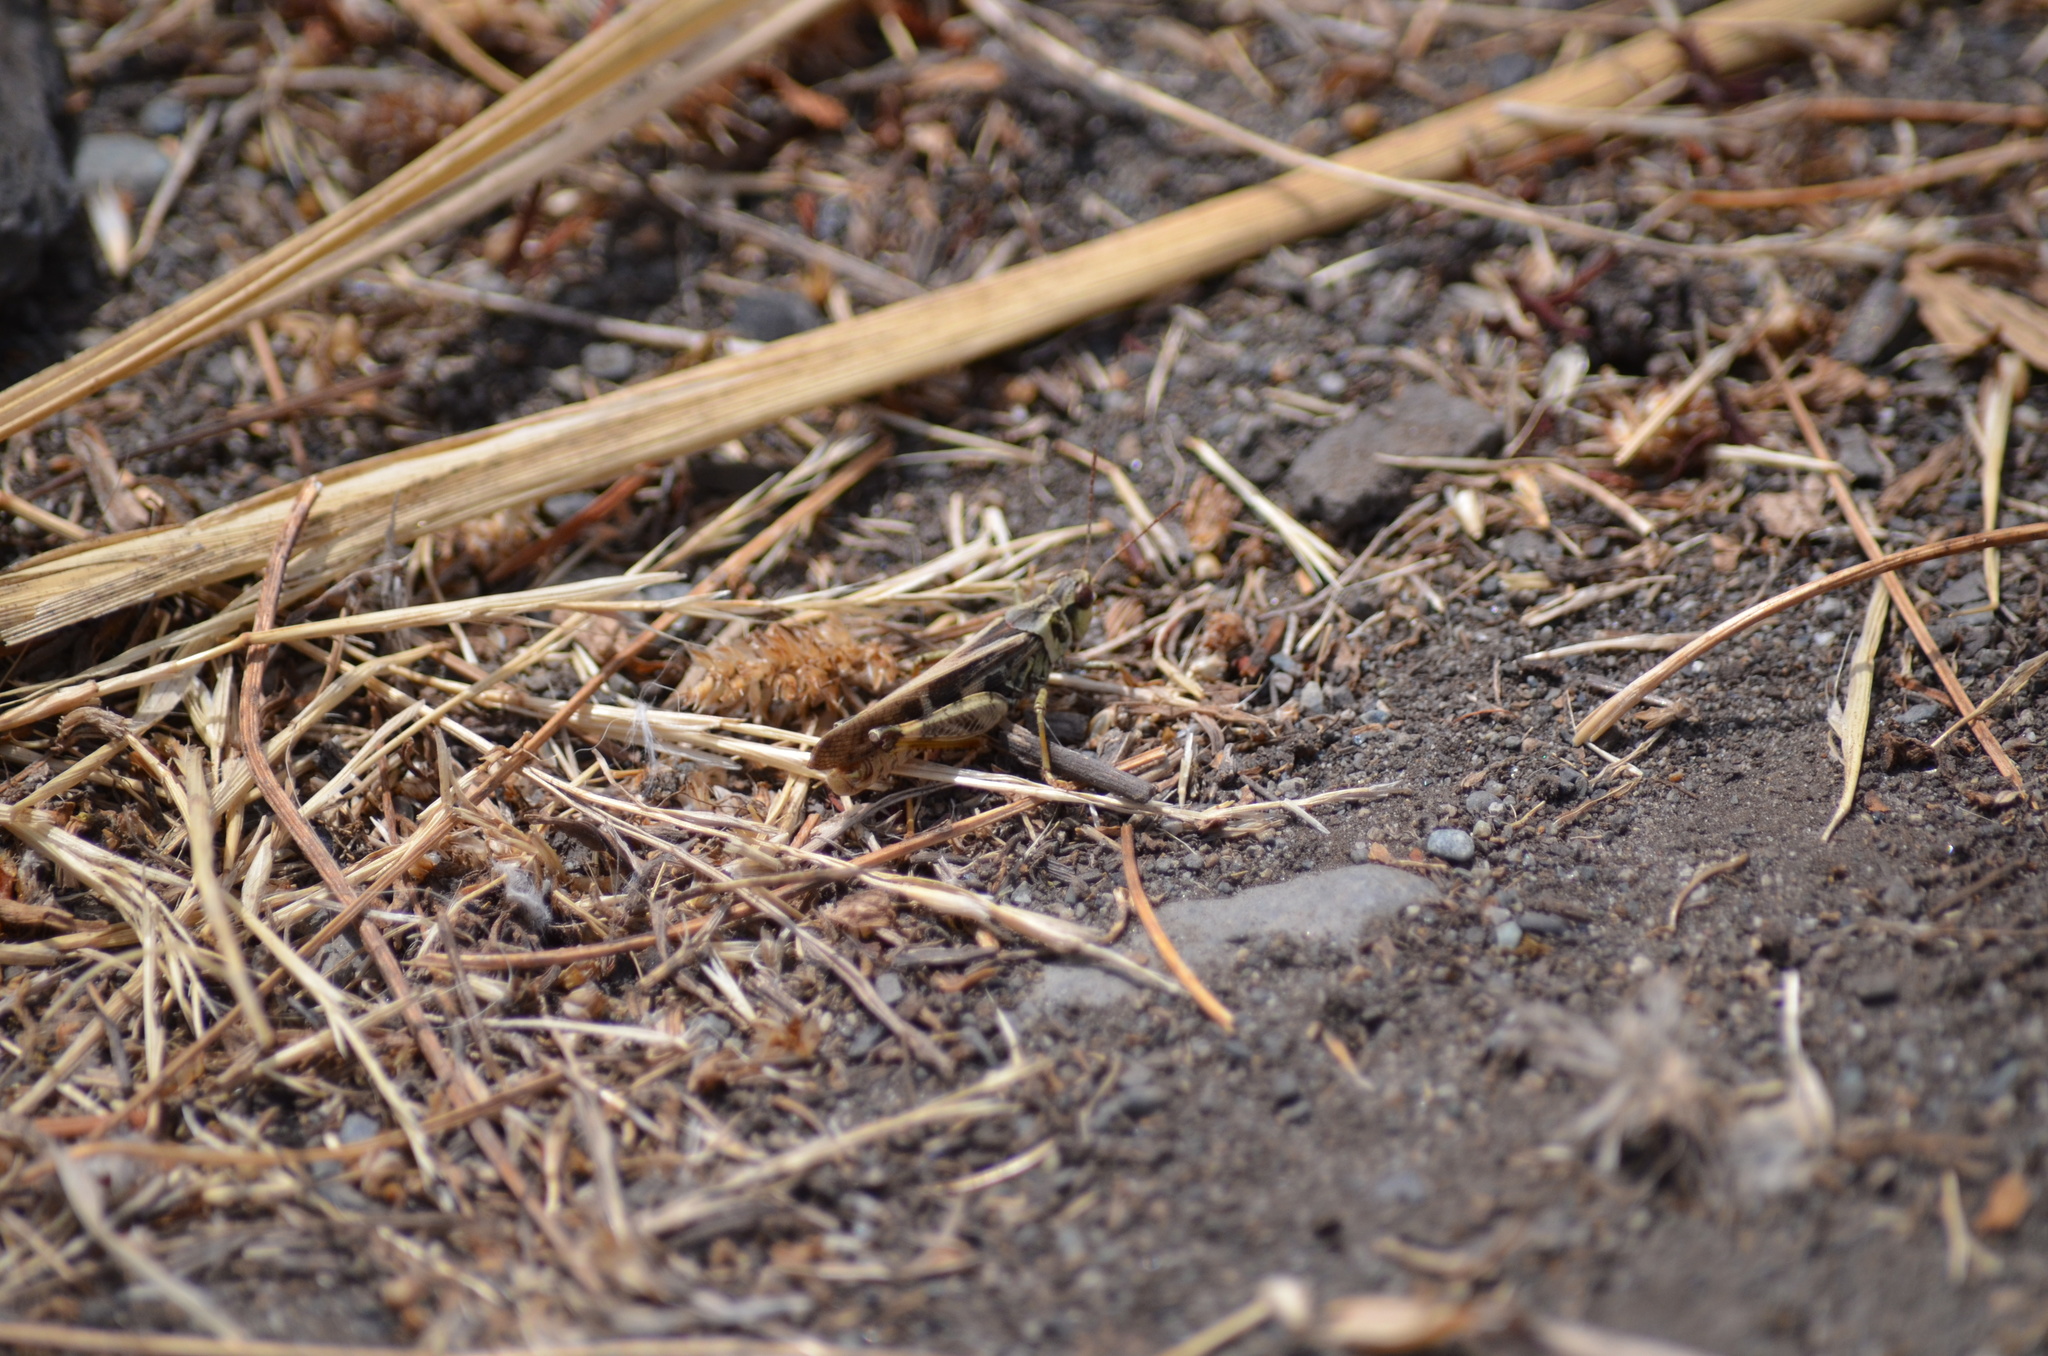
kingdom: Animalia
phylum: Arthropoda
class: Insecta
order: Orthoptera
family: Acrididae
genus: Camnula
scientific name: Camnula pellucida
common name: Clear-winged grasshopper
